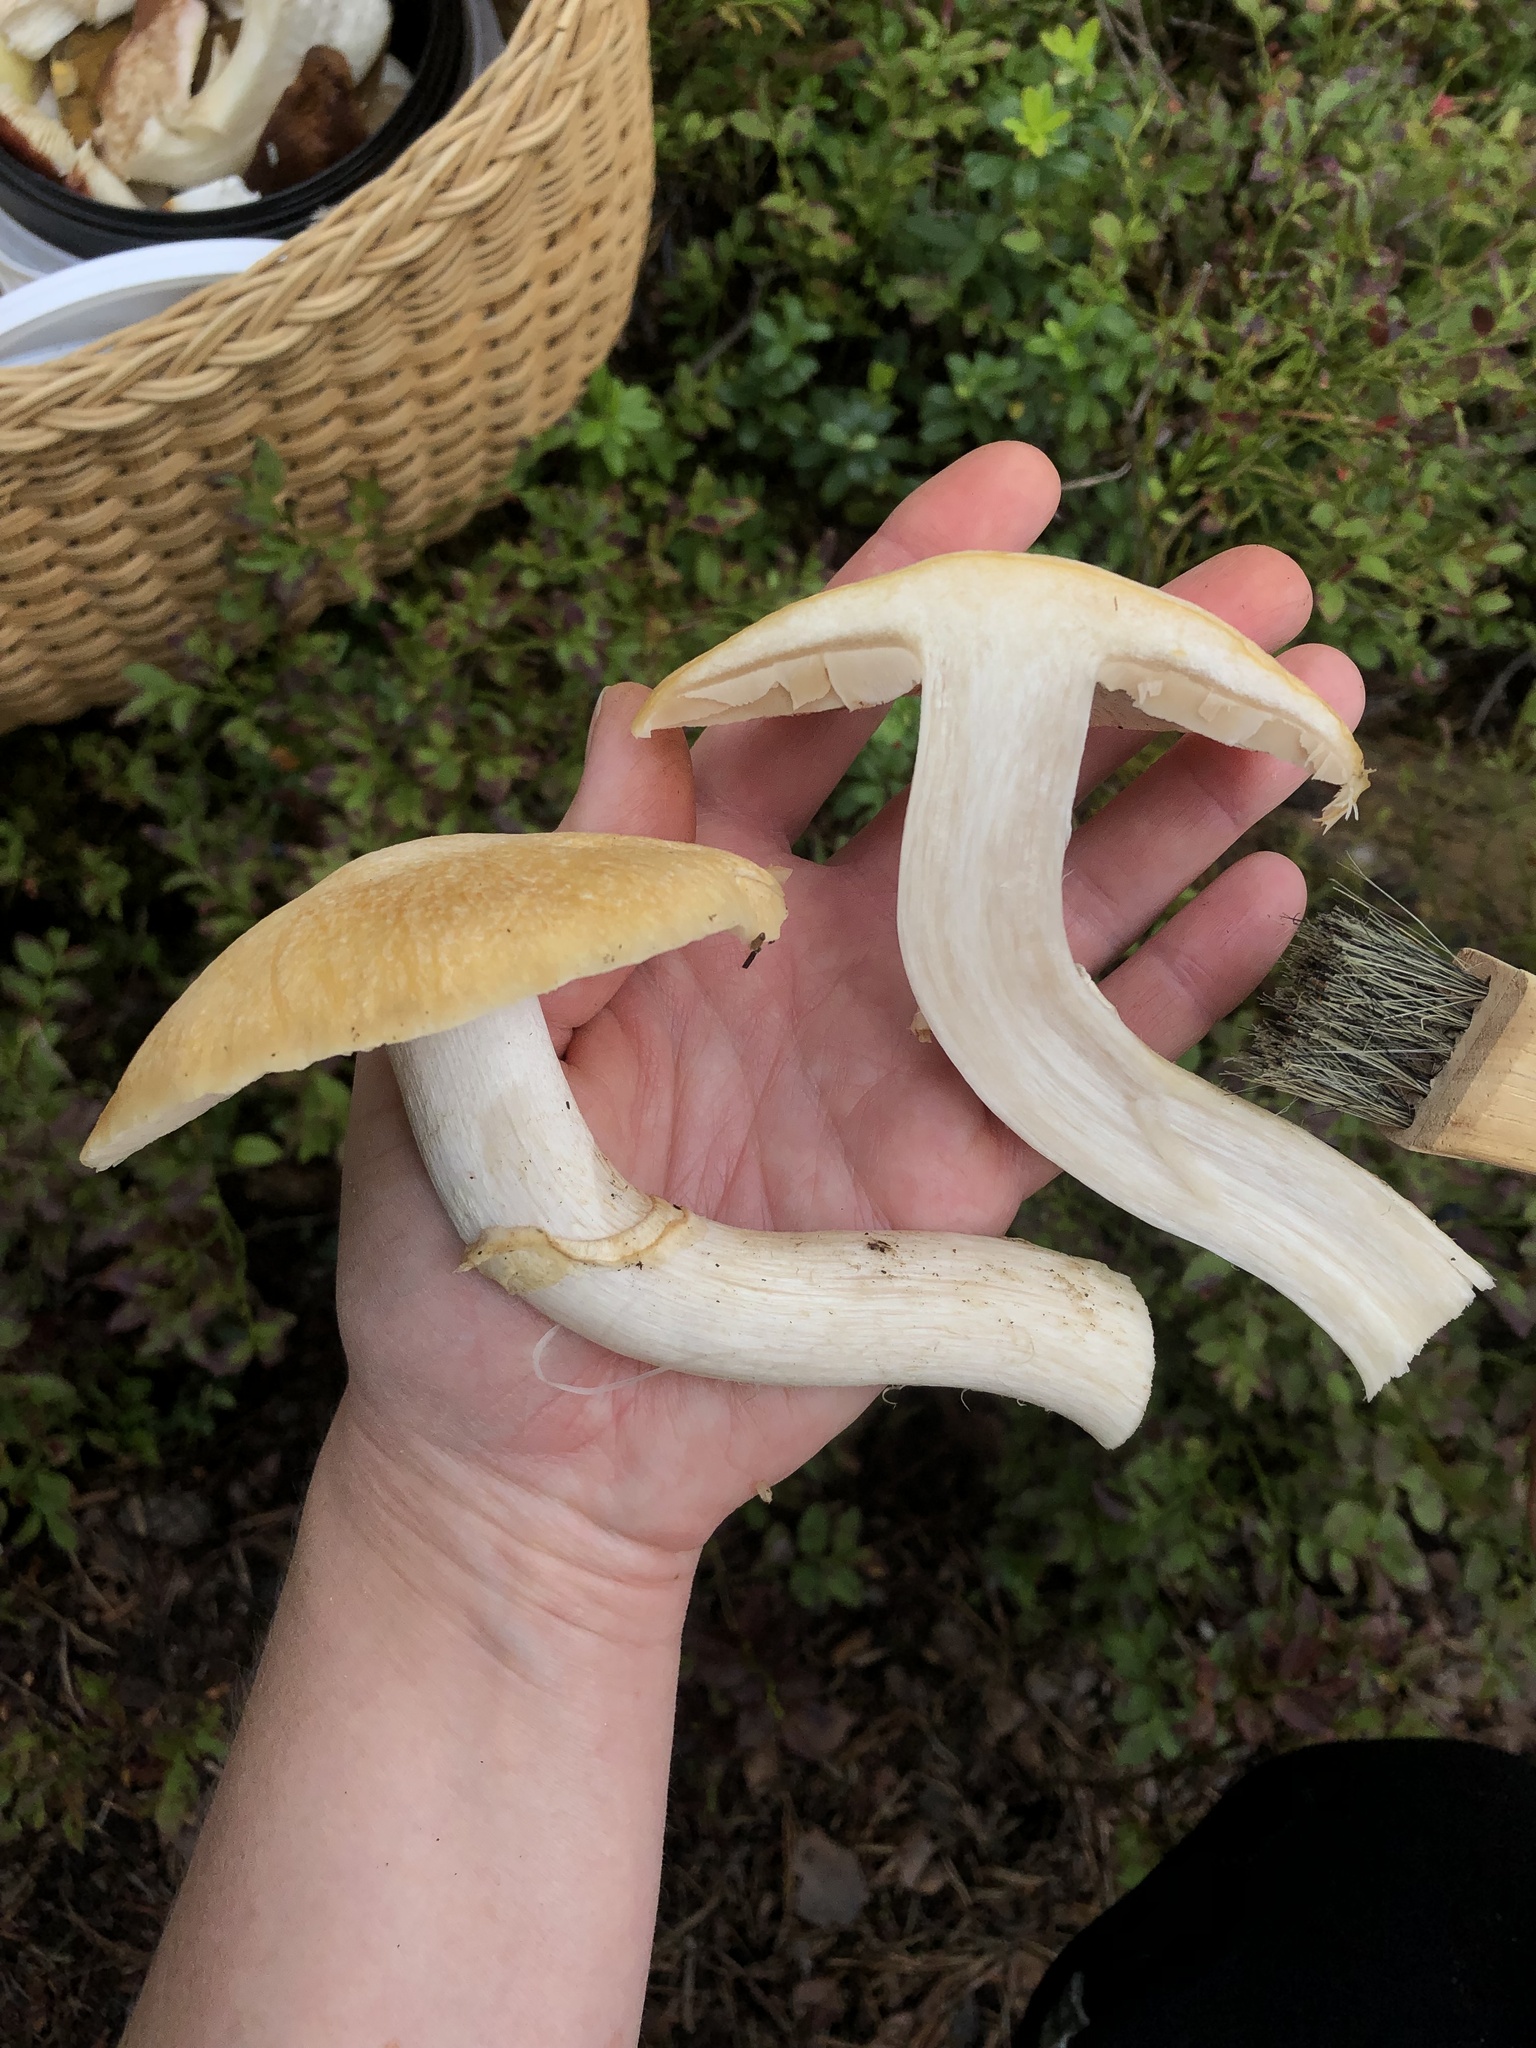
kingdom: Fungi
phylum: Basidiomycota
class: Agaricomycetes
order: Agaricales
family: Cortinariaceae
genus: Cortinarius
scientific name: Cortinarius caperatus
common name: The gypsy
